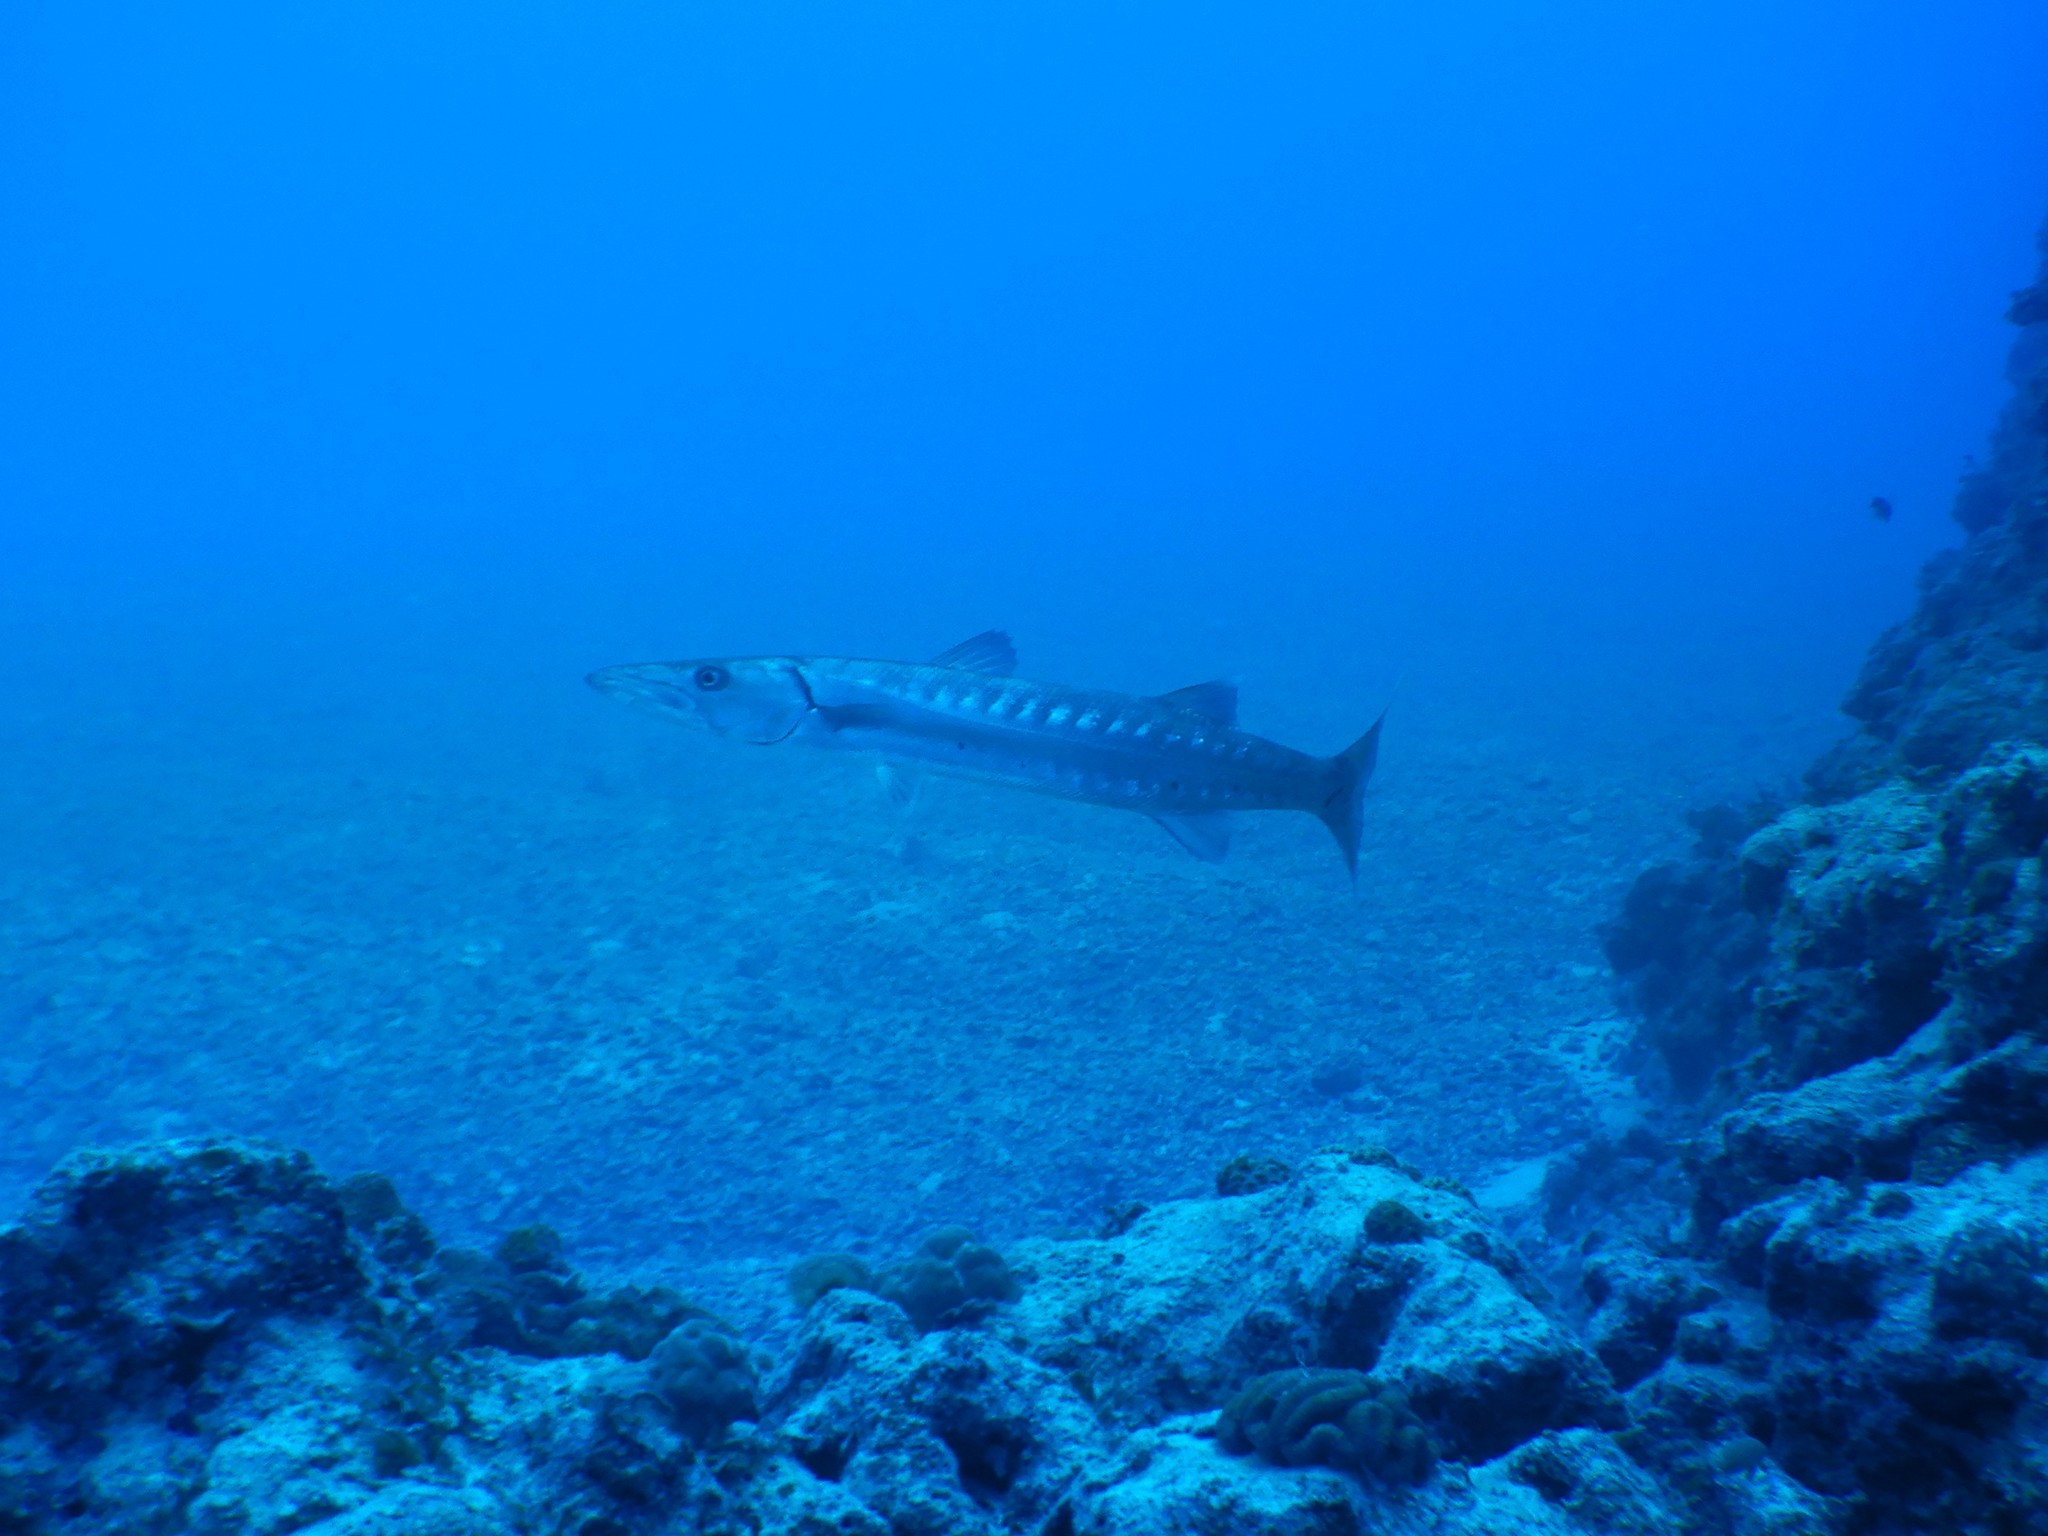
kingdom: Animalia
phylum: Chordata
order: Perciformes
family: Sphyraenidae
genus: Sphyraena
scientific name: Sphyraena barracuda
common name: Great barracuda
